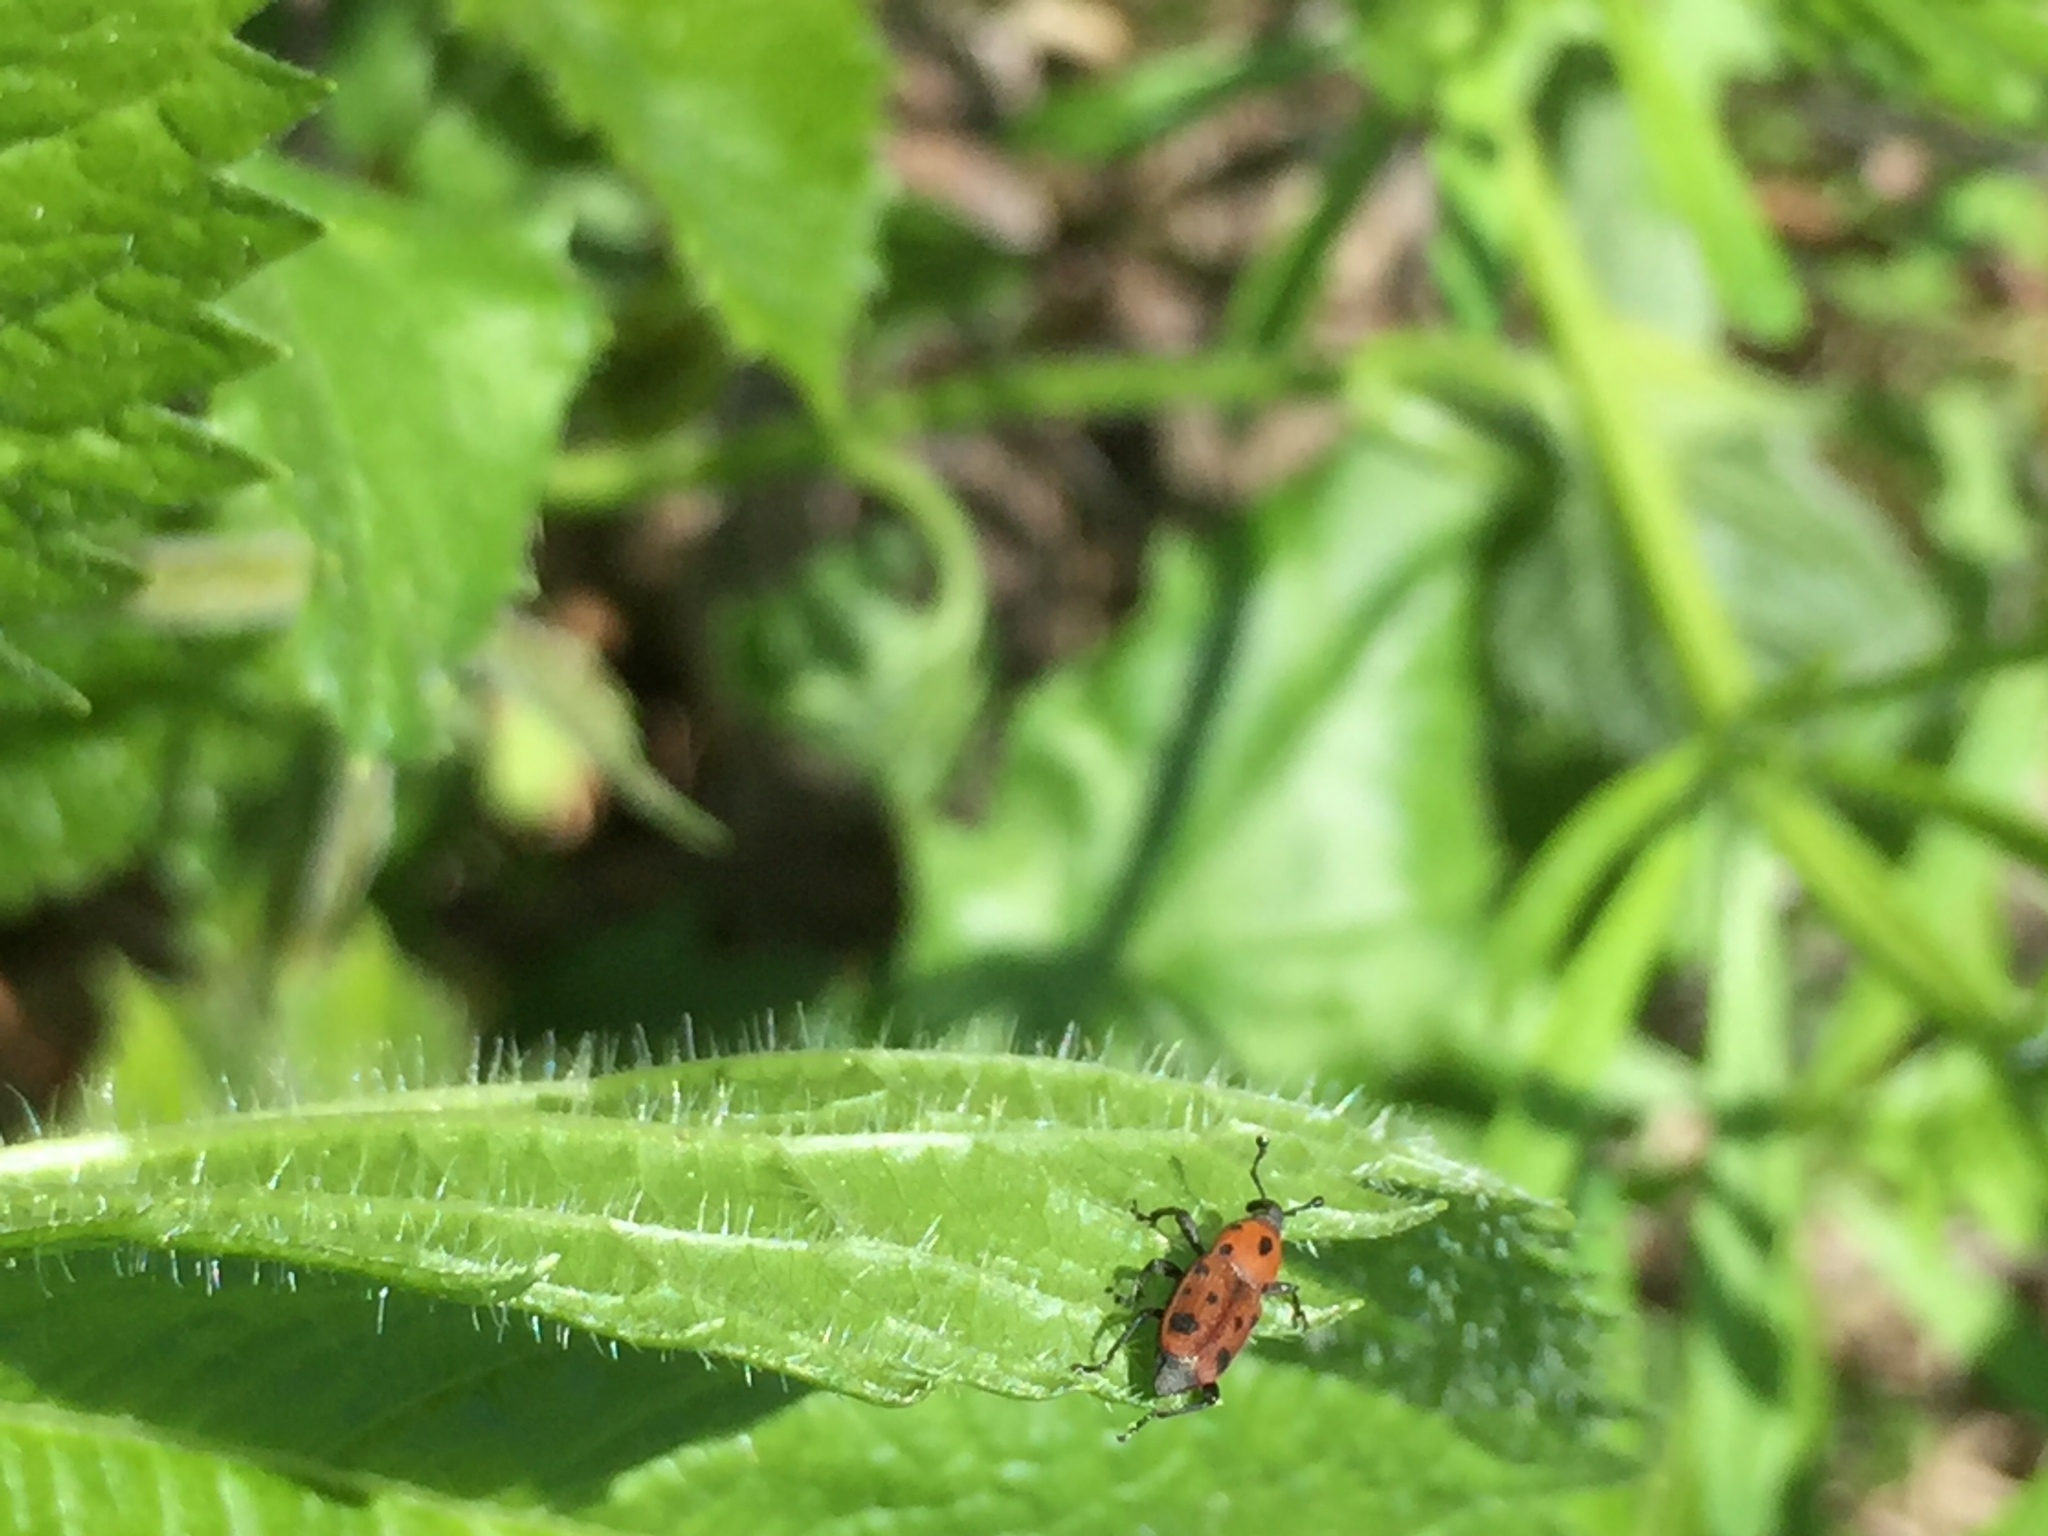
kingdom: Animalia
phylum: Arthropoda
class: Insecta
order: Coleoptera
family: Dryophthoridae
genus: Rhodobaenus
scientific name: Rhodobaenus tredecimpunctatus
